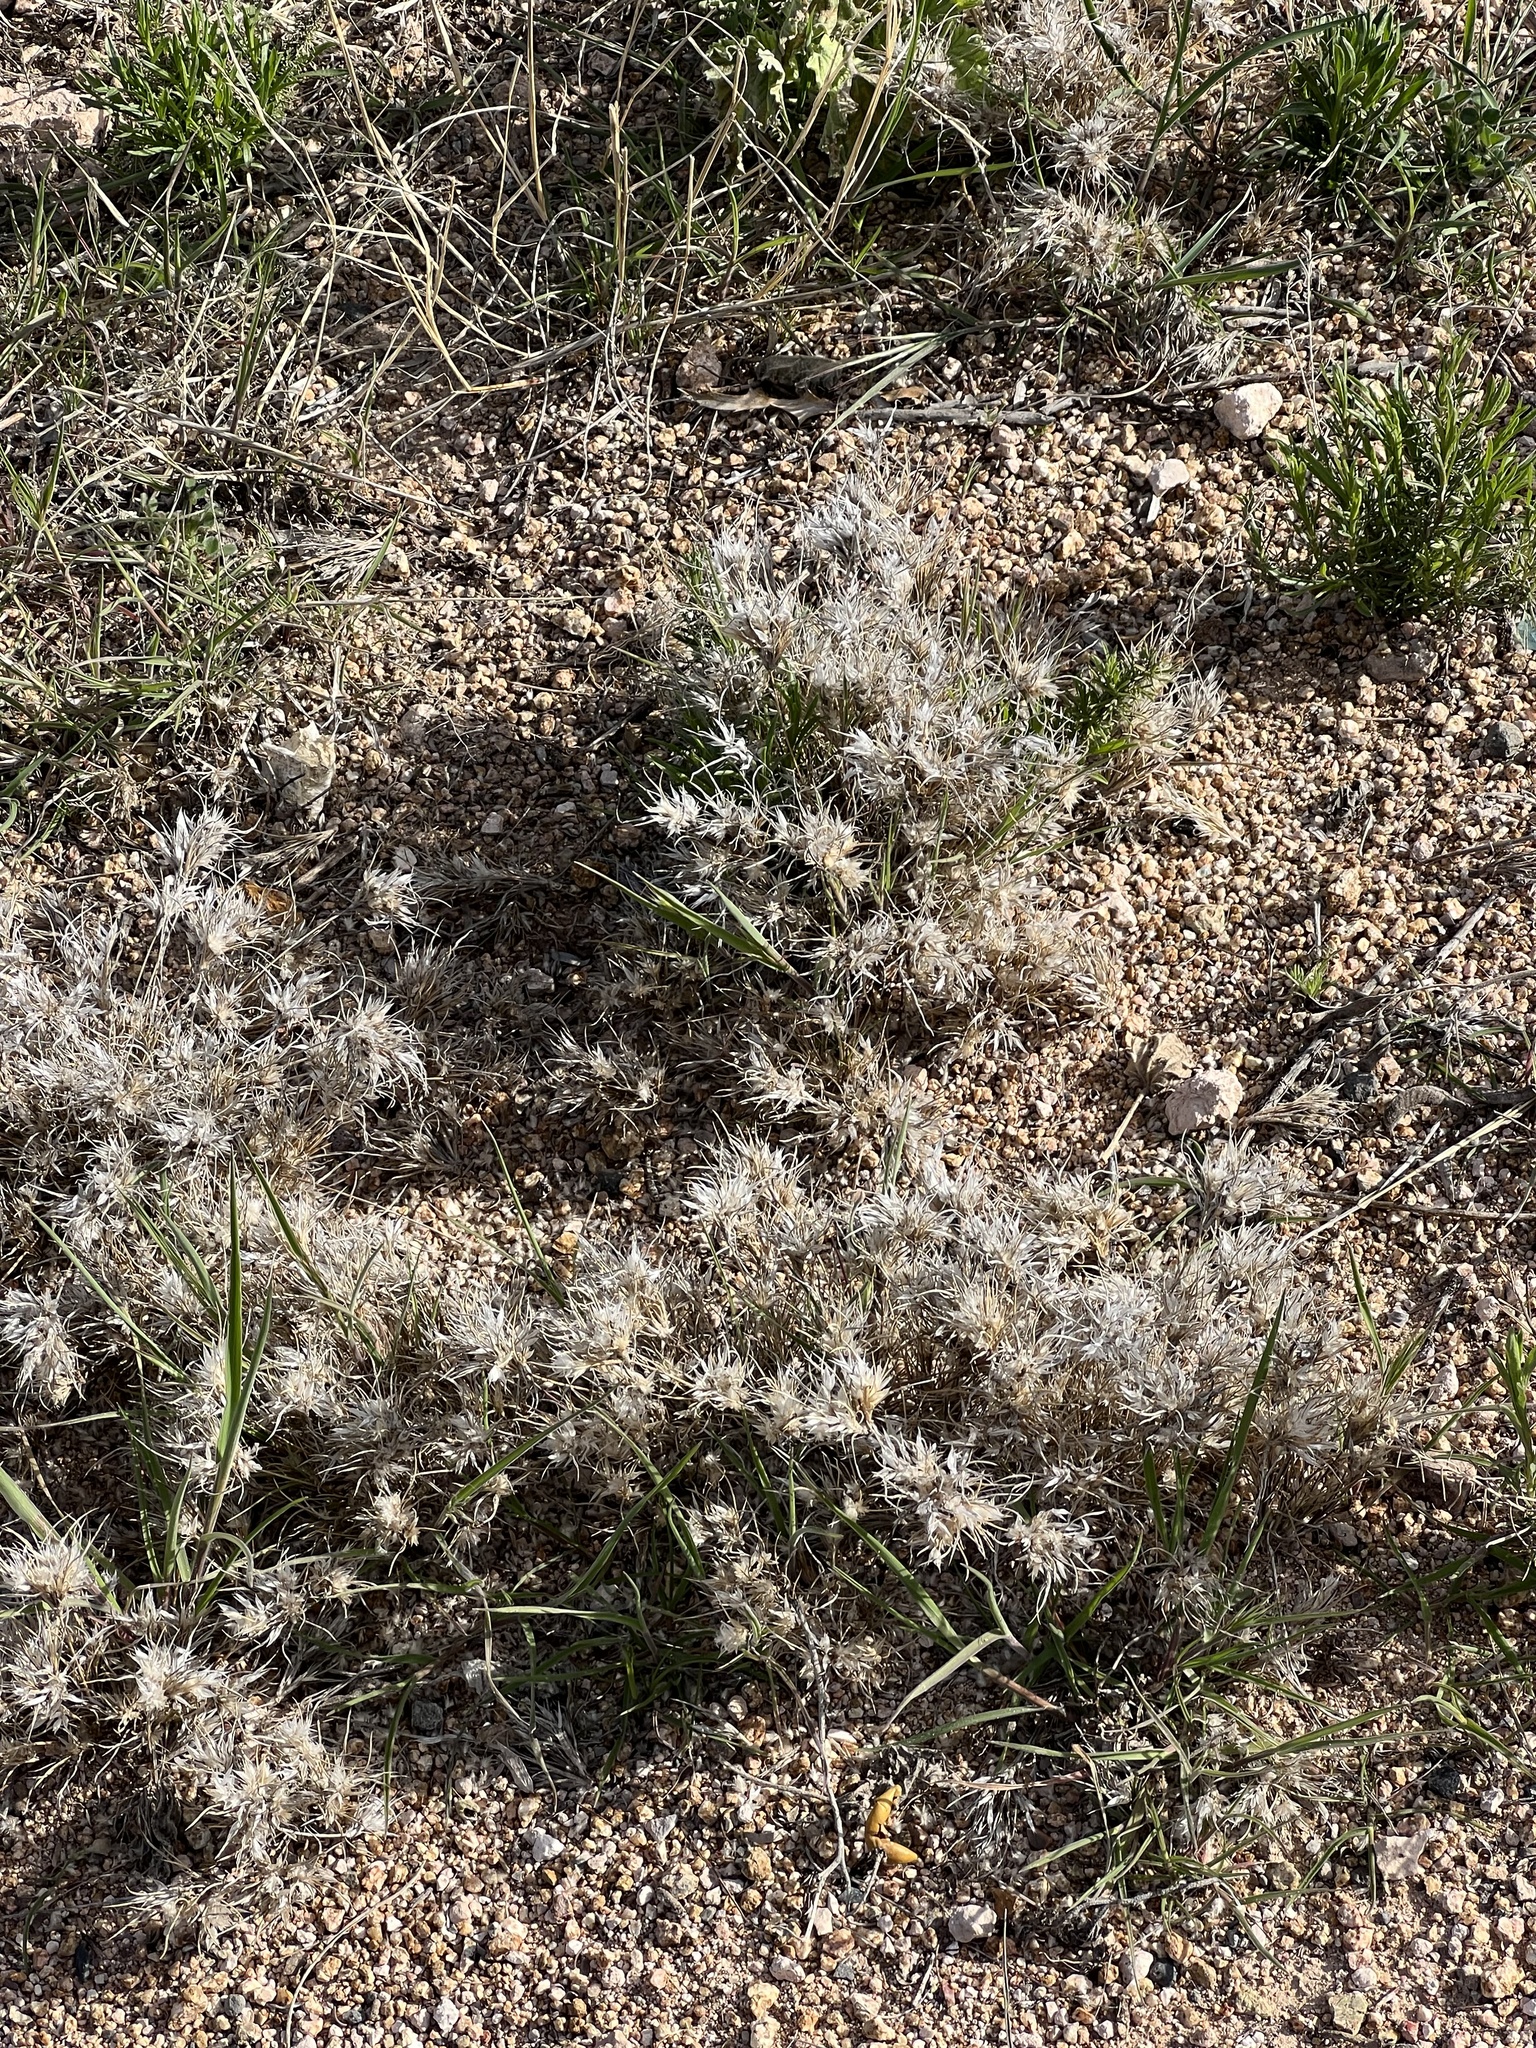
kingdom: Plantae
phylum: Tracheophyta
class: Liliopsida
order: Poales
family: Poaceae
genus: Dasyochloa
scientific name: Dasyochloa pulchella
